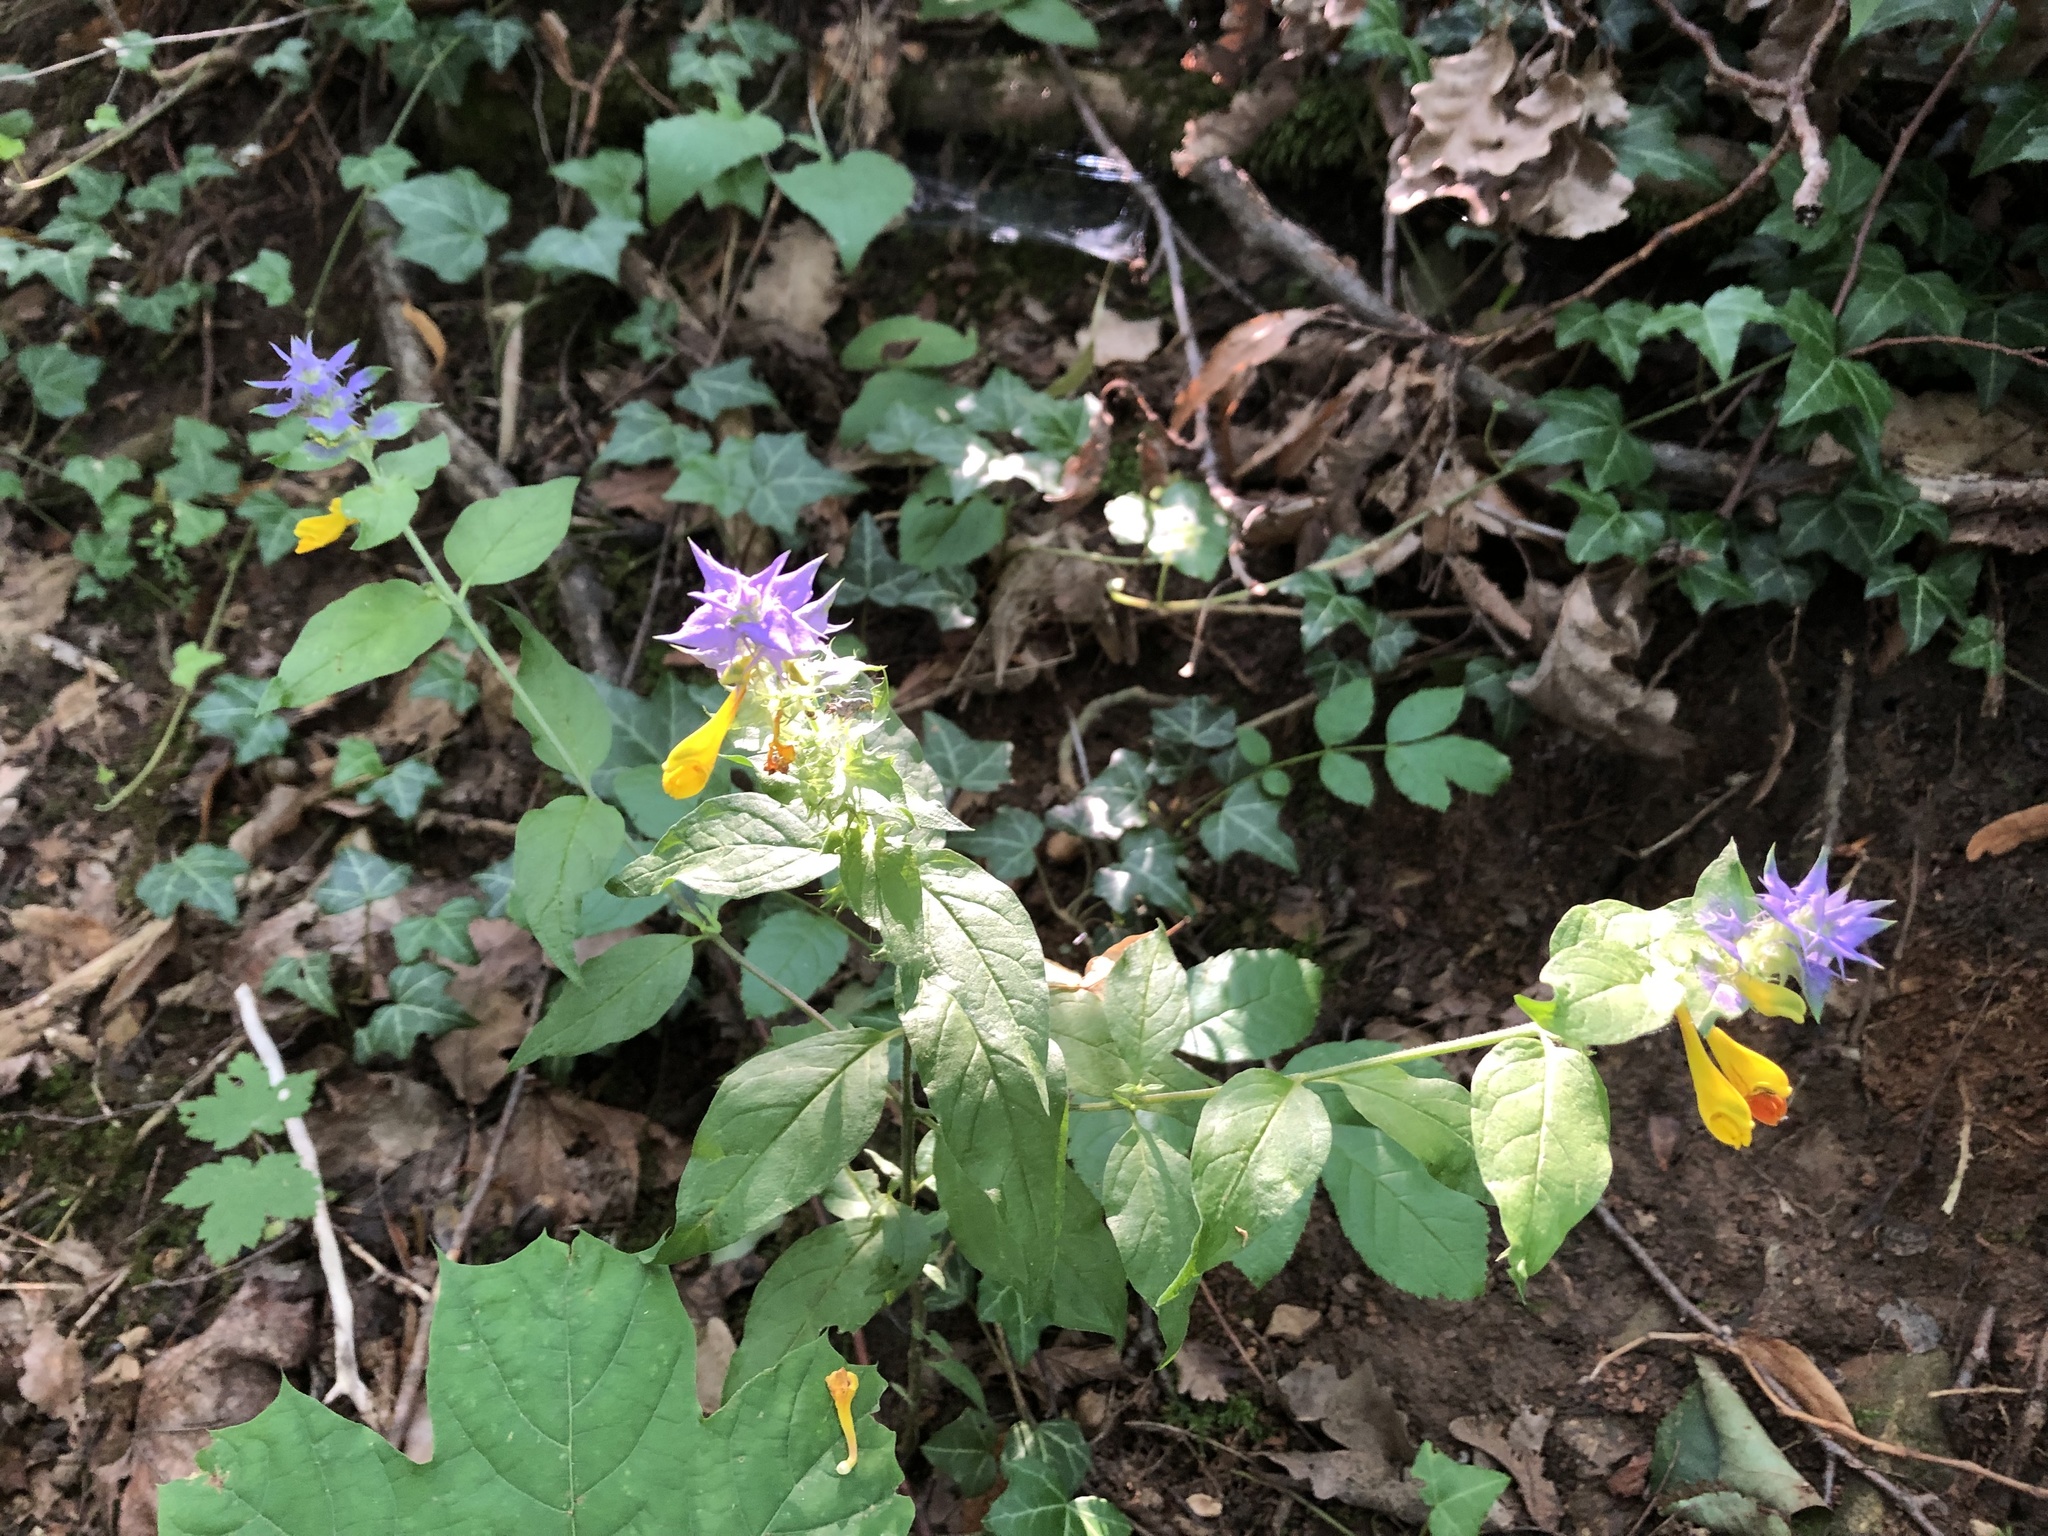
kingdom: Plantae
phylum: Tracheophyta
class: Magnoliopsida
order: Lamiales
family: Orobanchaceae
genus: Melampyrum
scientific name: Melampyrum nemorosum
